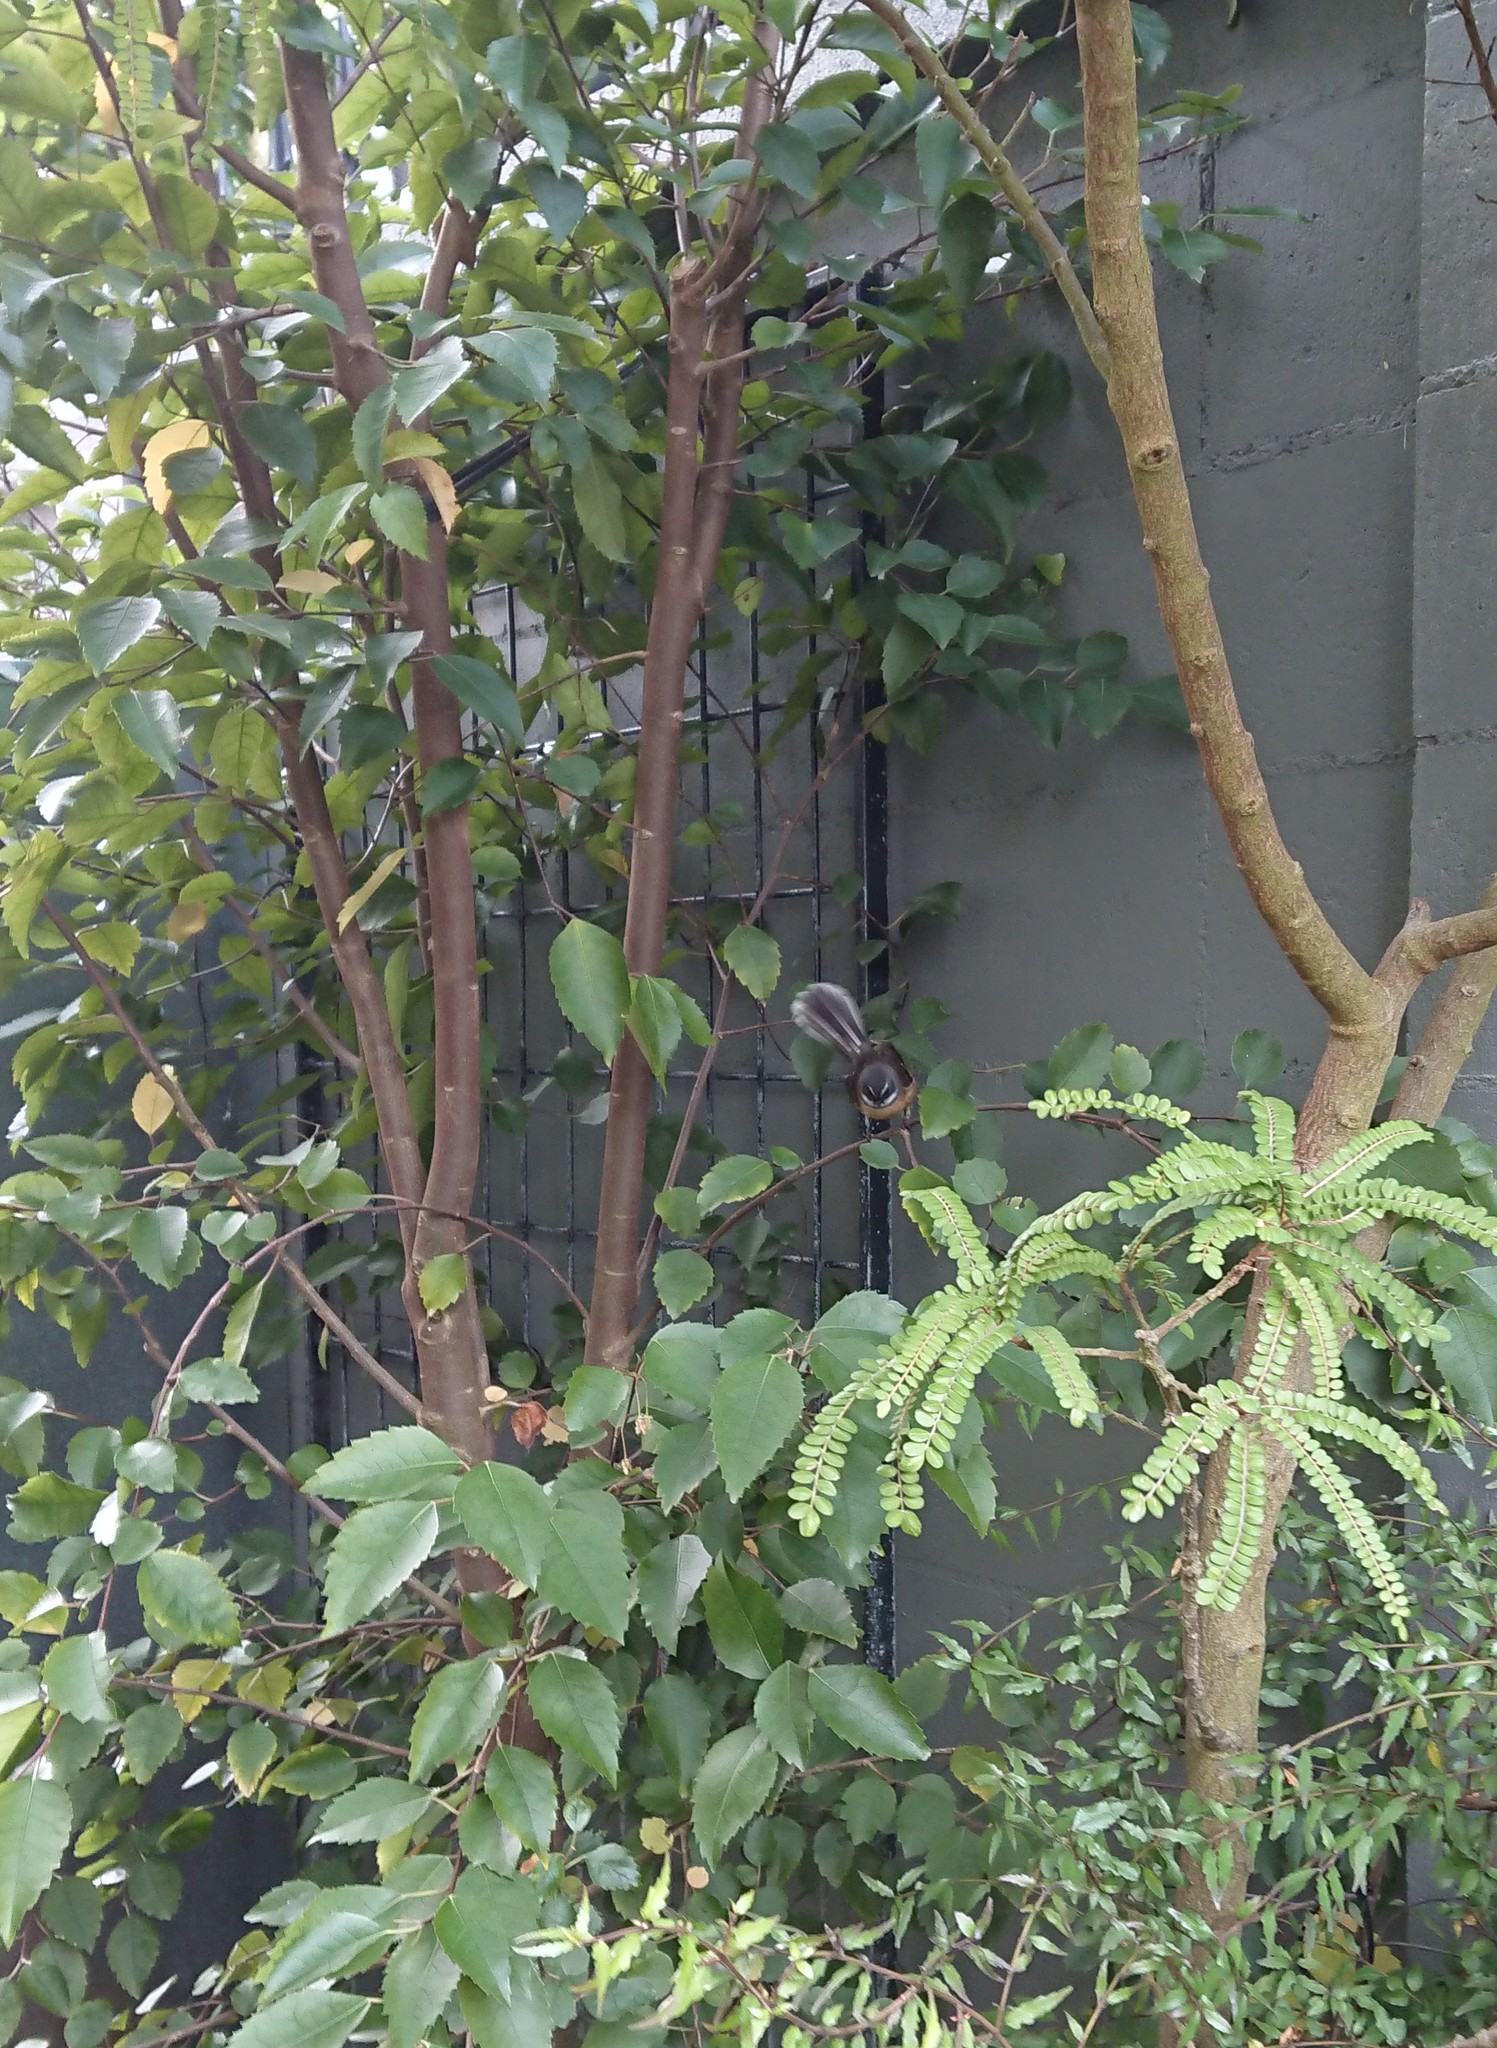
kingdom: Animalia
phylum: Chordata
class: Aves
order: Passeriformes
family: Rhipiduridae
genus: Rhipidura
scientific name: Rhipidura fuliginosa
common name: New zealand fantail
